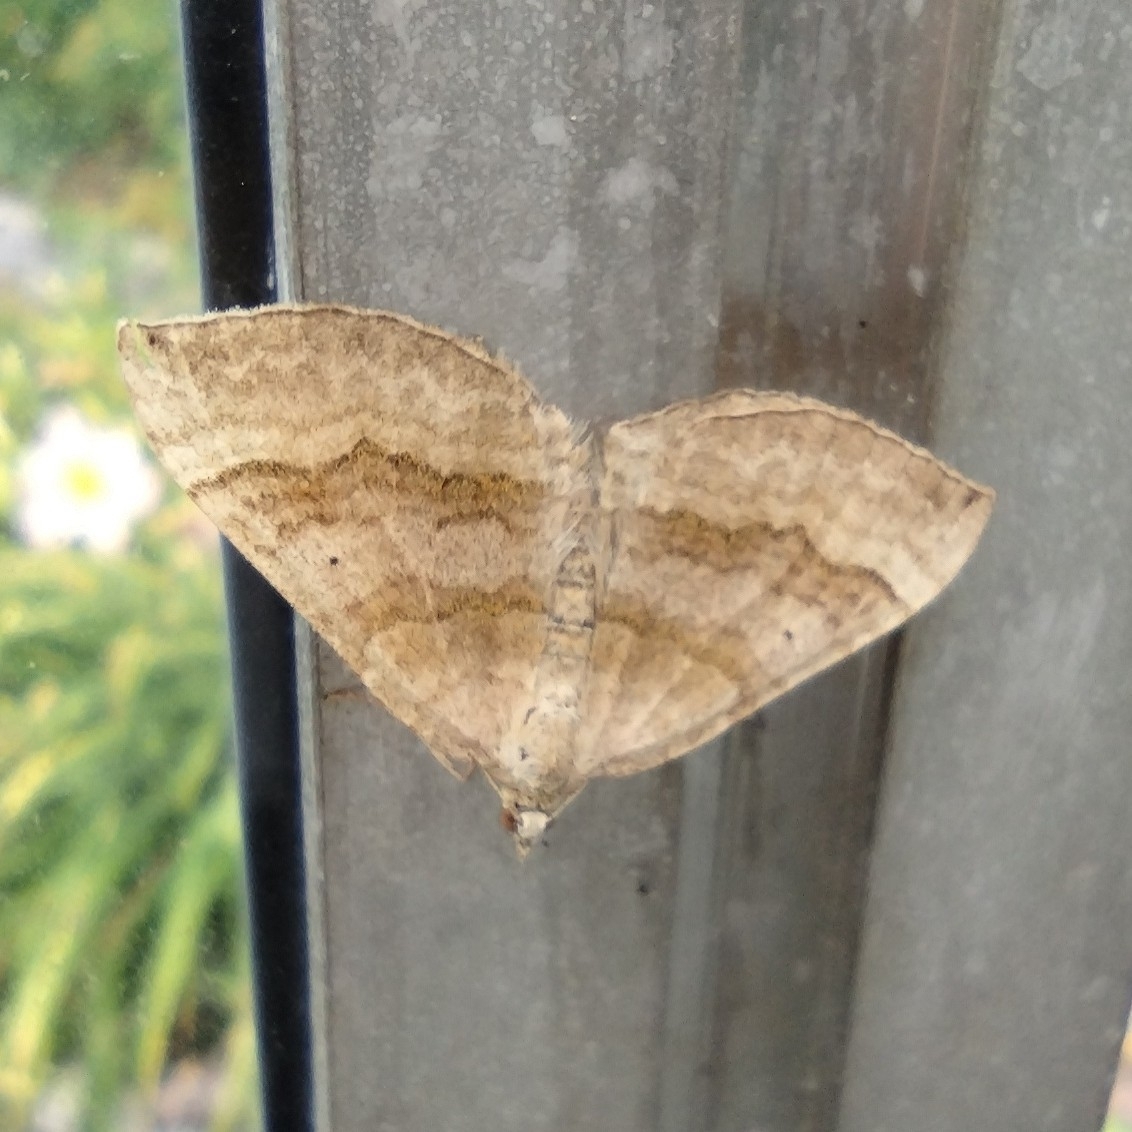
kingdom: Animalia
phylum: Arthropoda
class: Insecta
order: Lepidoptera
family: Geometridae
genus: Scotopteryx
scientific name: Scotopteryx chenopodiata
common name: Shaded broad-bar
